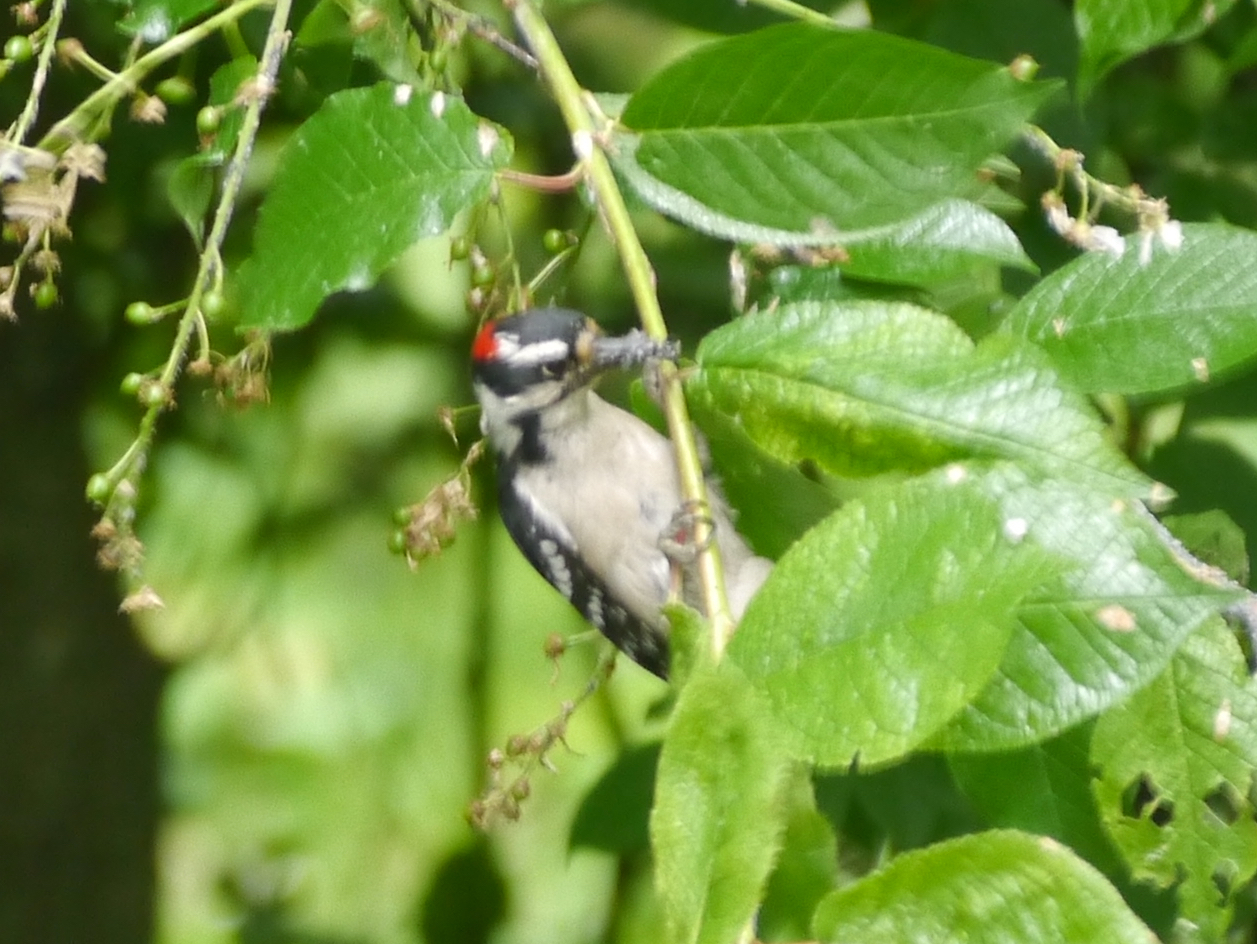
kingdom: Animalia
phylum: Chordata
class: Aves
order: Piciformes
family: Picidae
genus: Dryobates
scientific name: Dryobates pubescens
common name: Downy woodpecker
